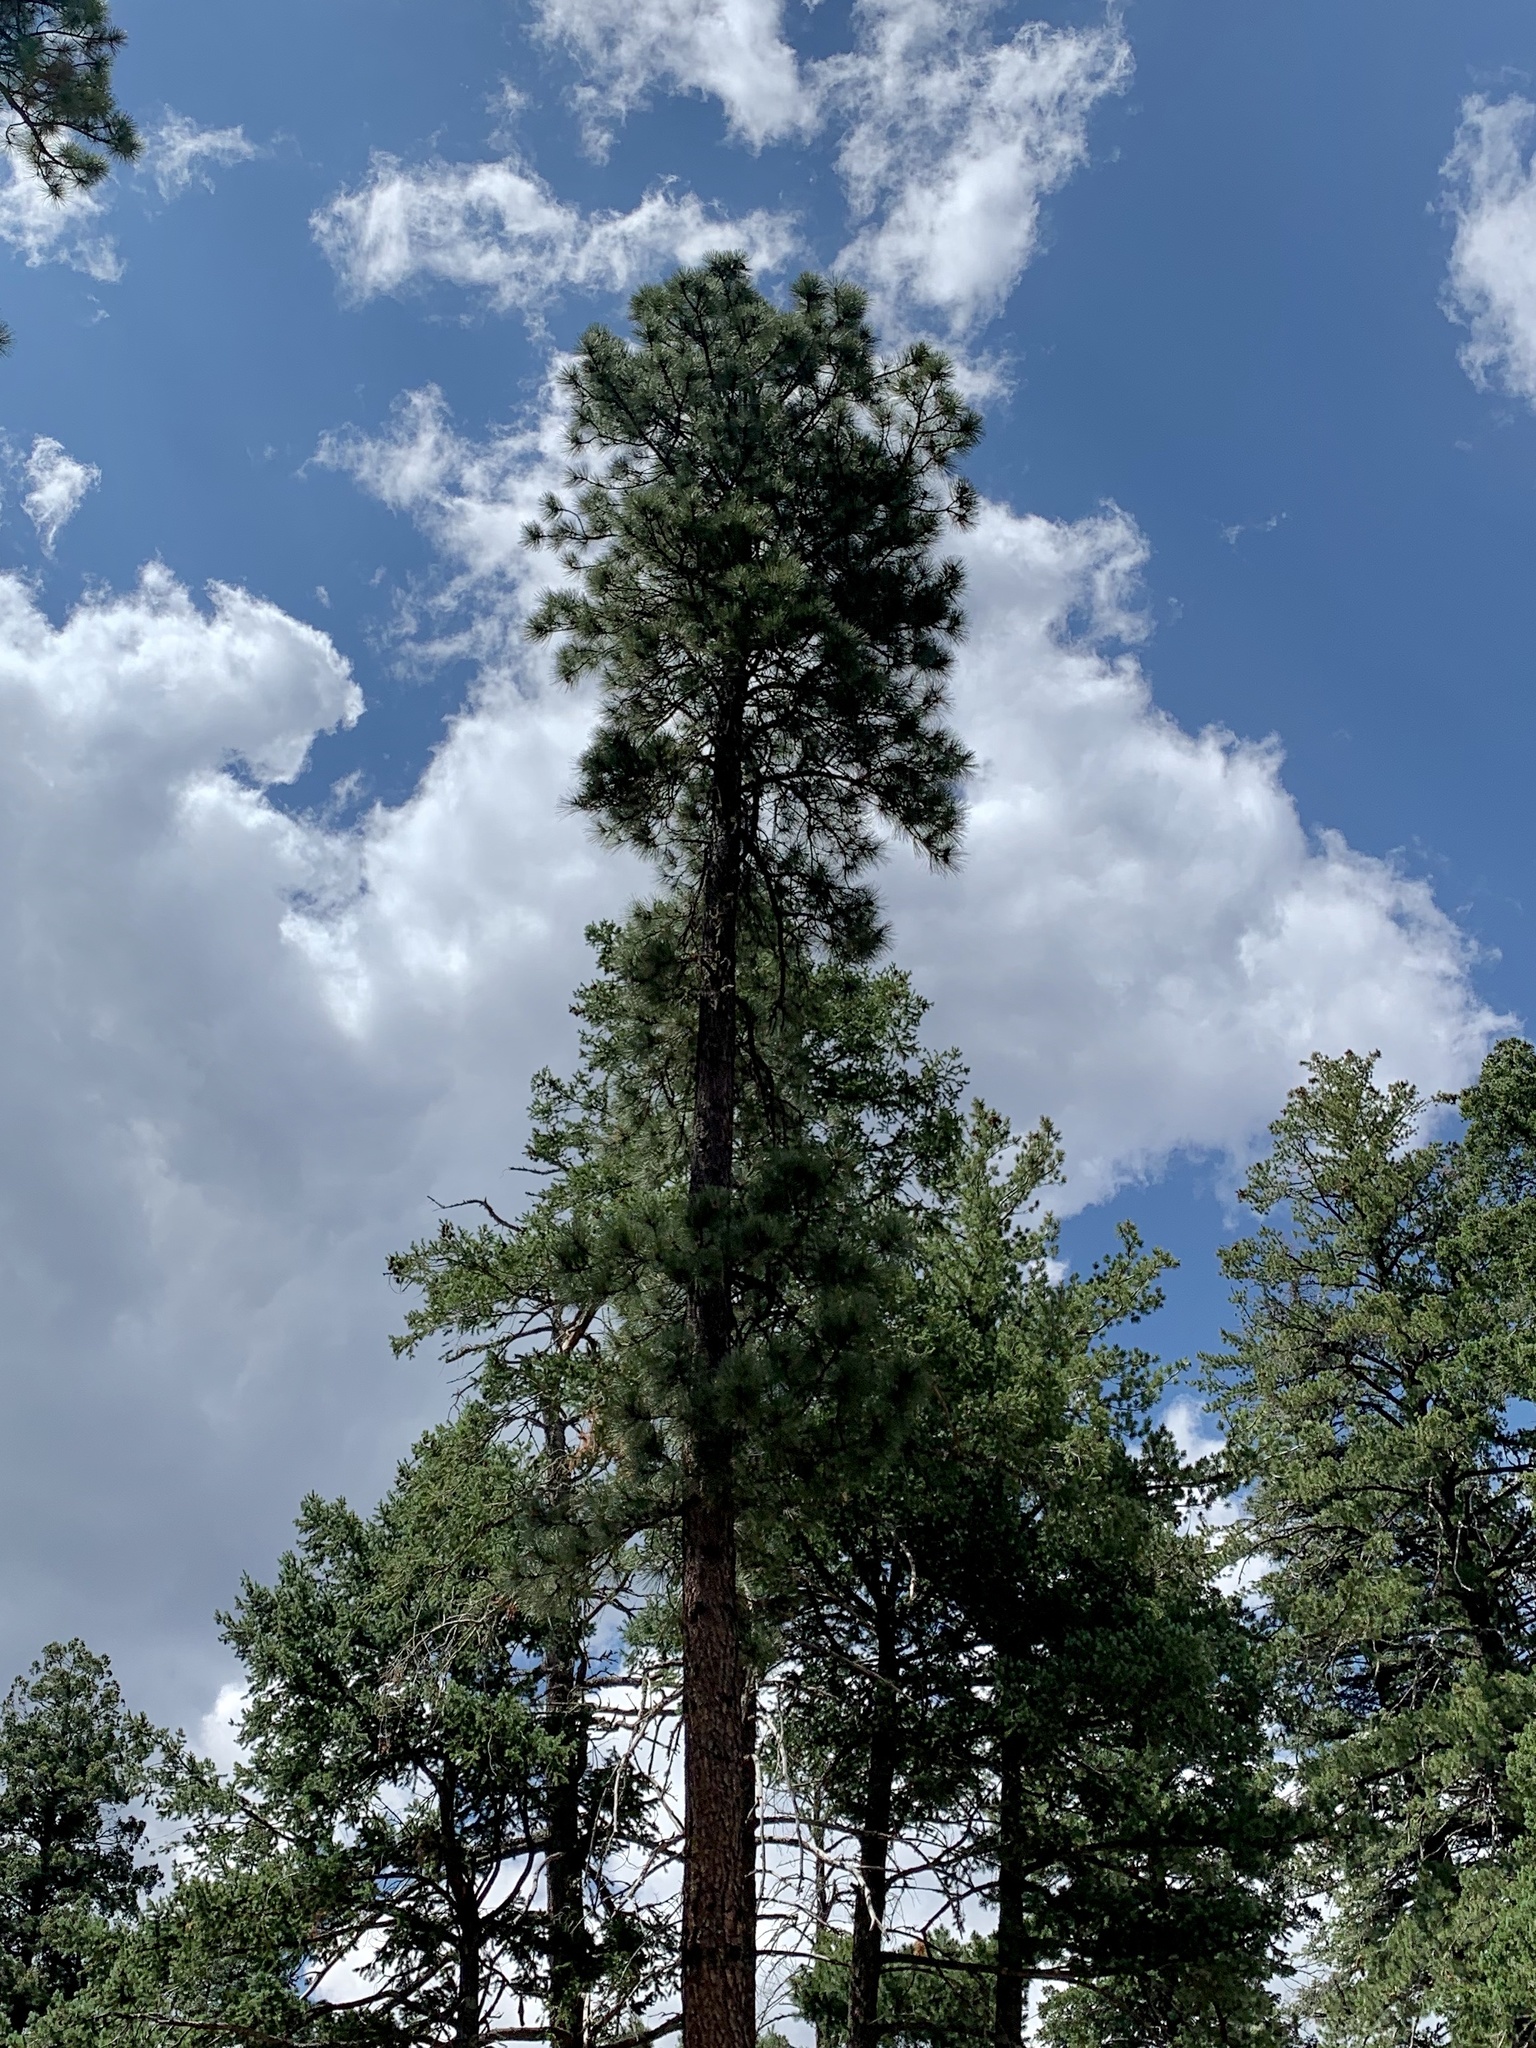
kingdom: Plantae
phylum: Tracheophyta
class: Pinopsida
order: Pinales
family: Pinaceae
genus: Pinus
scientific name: Pinus ponderosa
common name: Western yellow-pine
